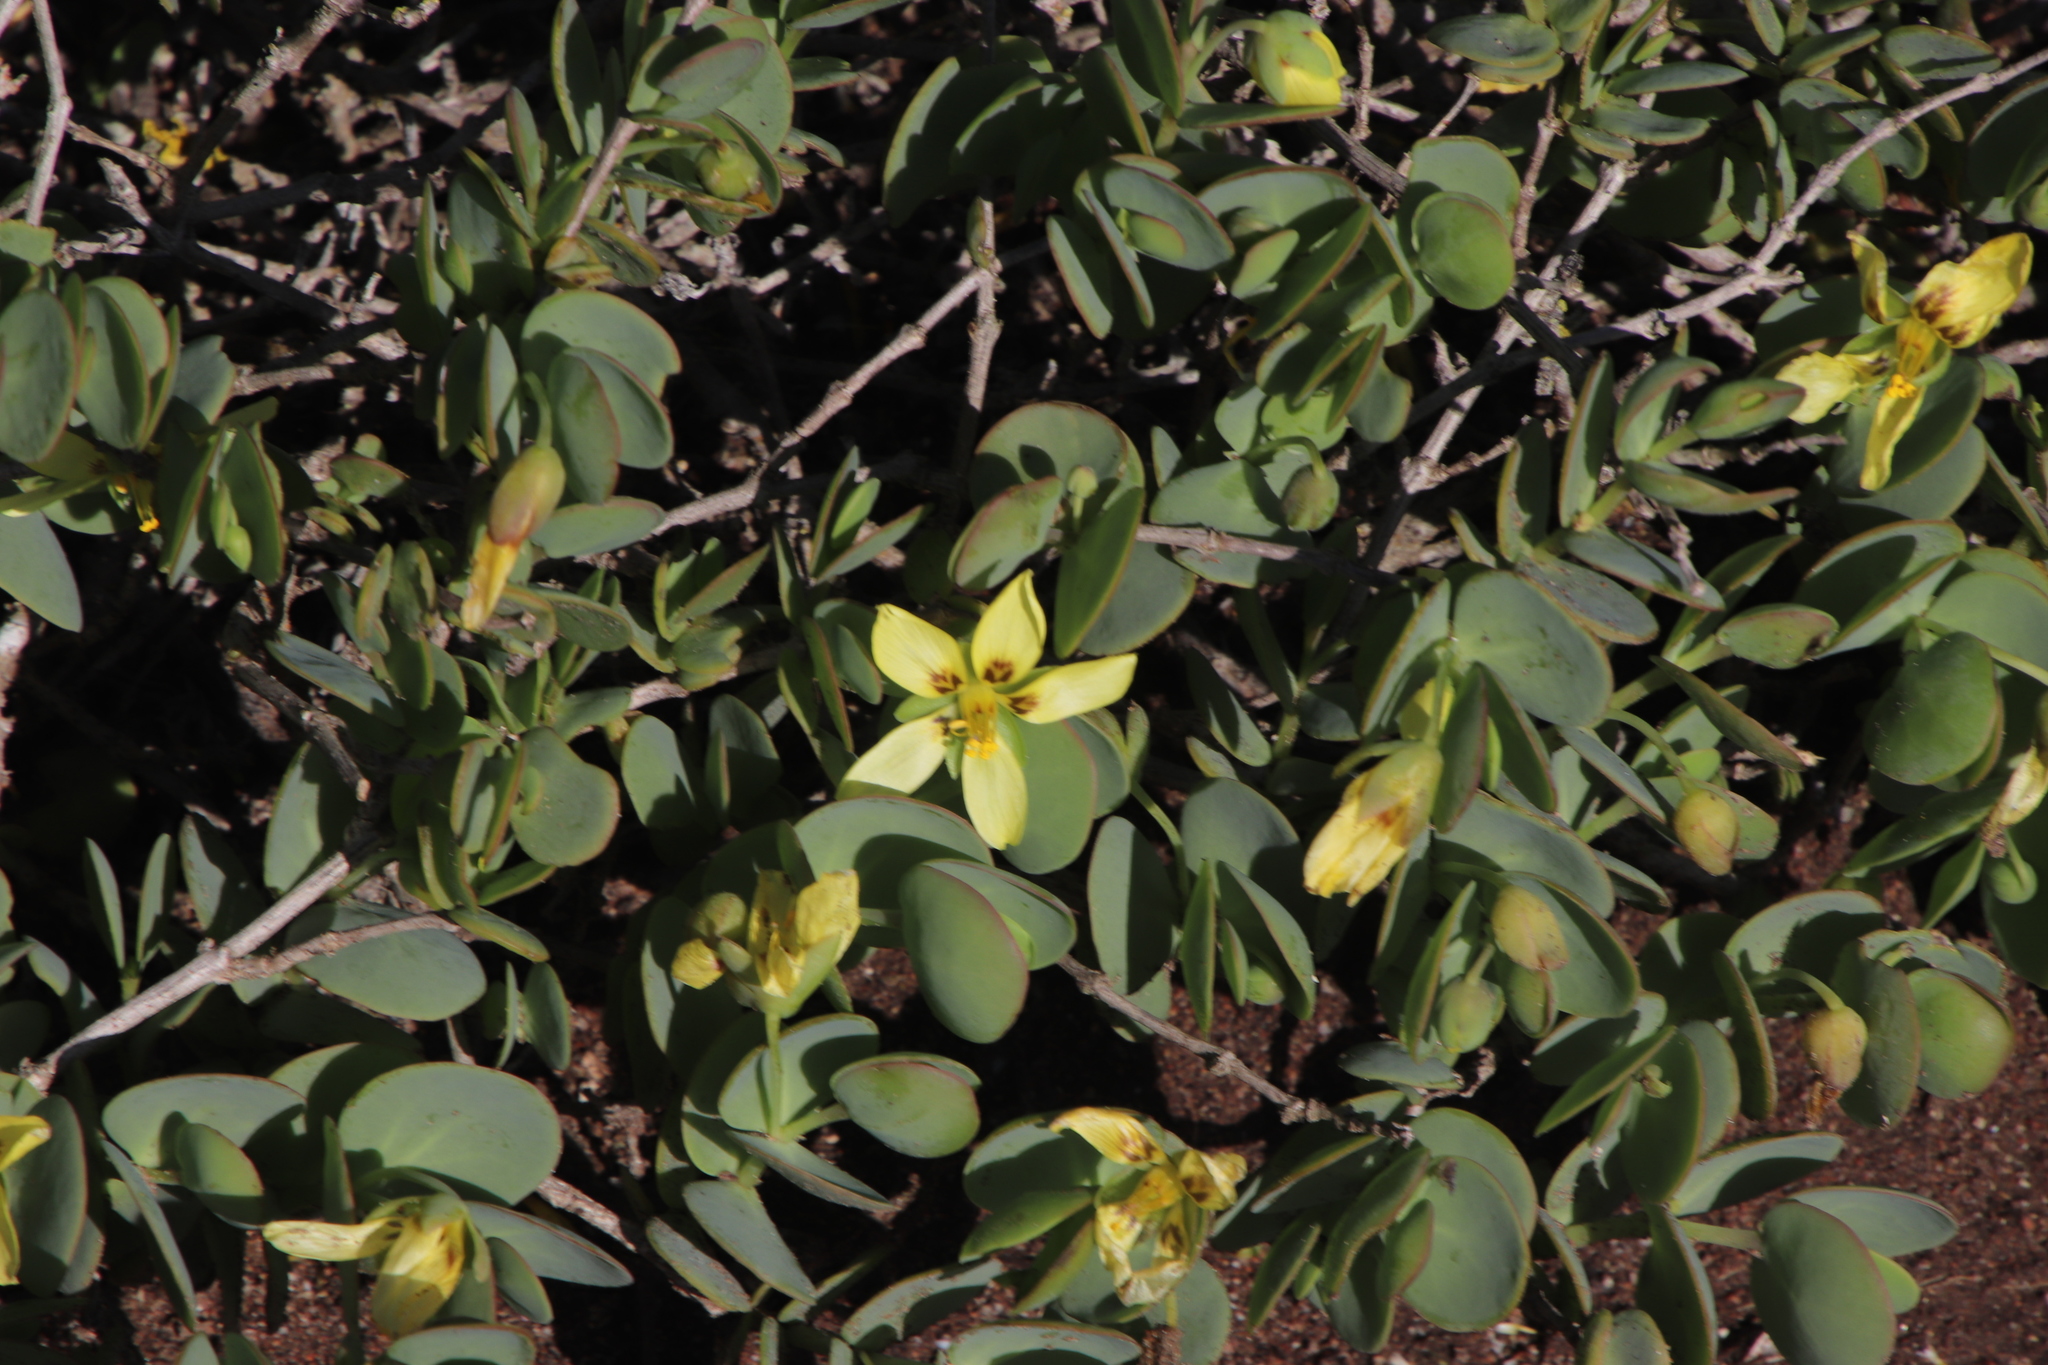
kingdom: Plantae
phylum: Tracheophyta
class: Magnoliopsida
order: Zygophyllales
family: Zygophyllaceae
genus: Roepera
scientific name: Roepera cordifolia
